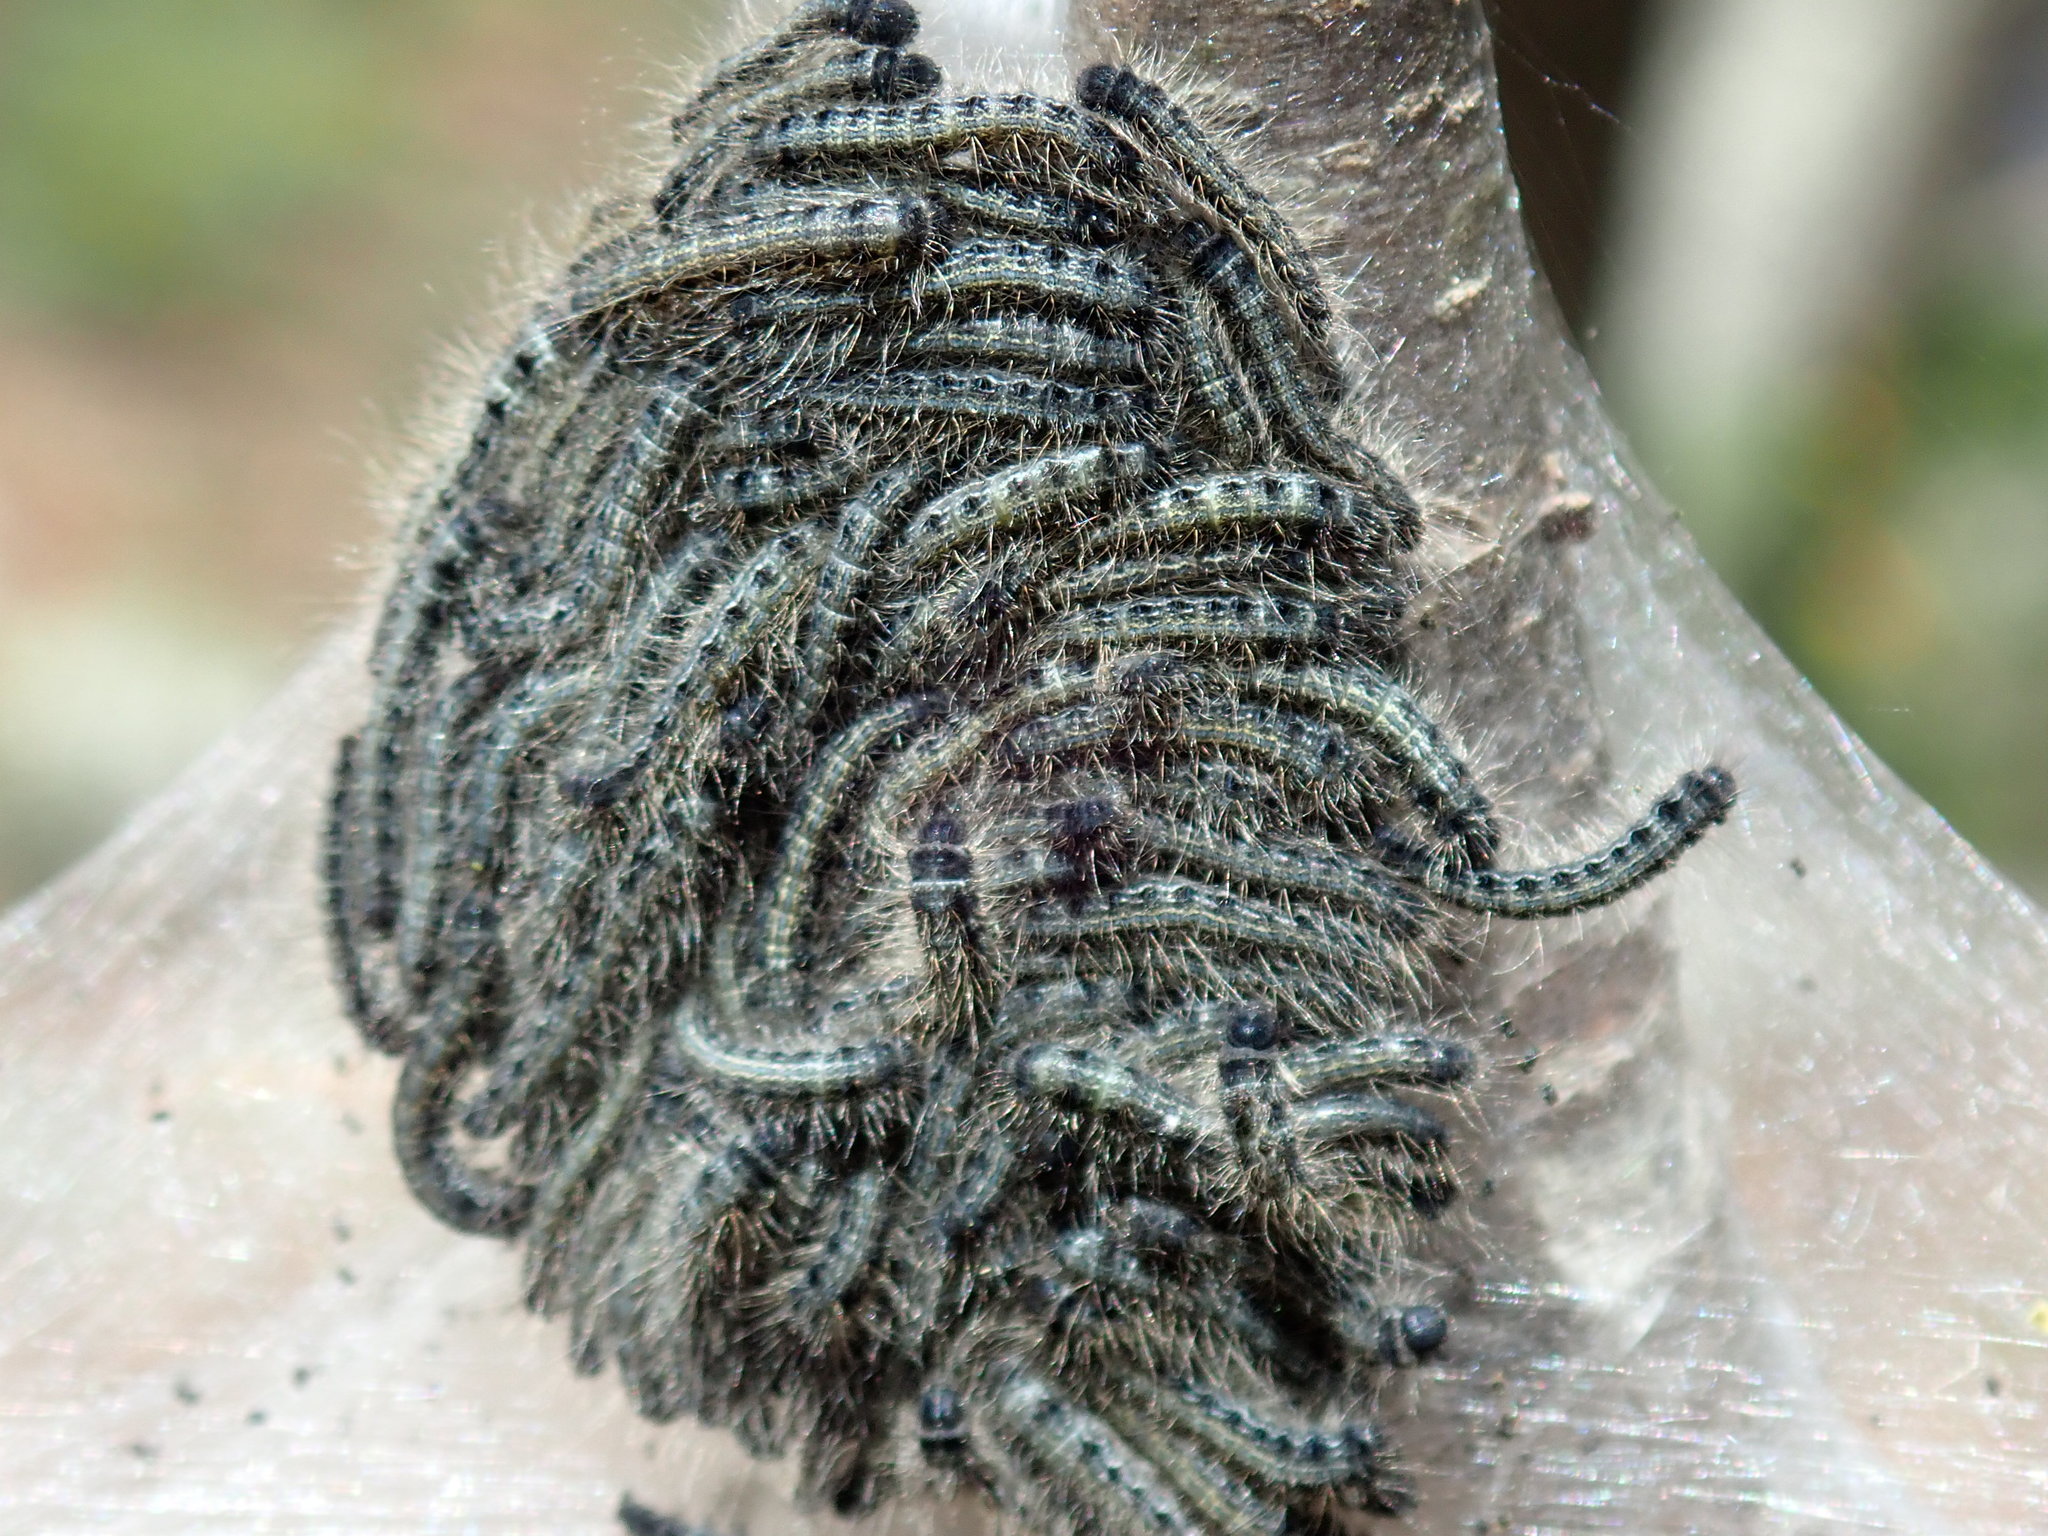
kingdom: Animalia
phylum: Arthropoda
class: Insecta
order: Lepidoptera
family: Lasiocampidae
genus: Malacosoma
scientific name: Malacosoma americana
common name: Eastern tent caterpillar moth
